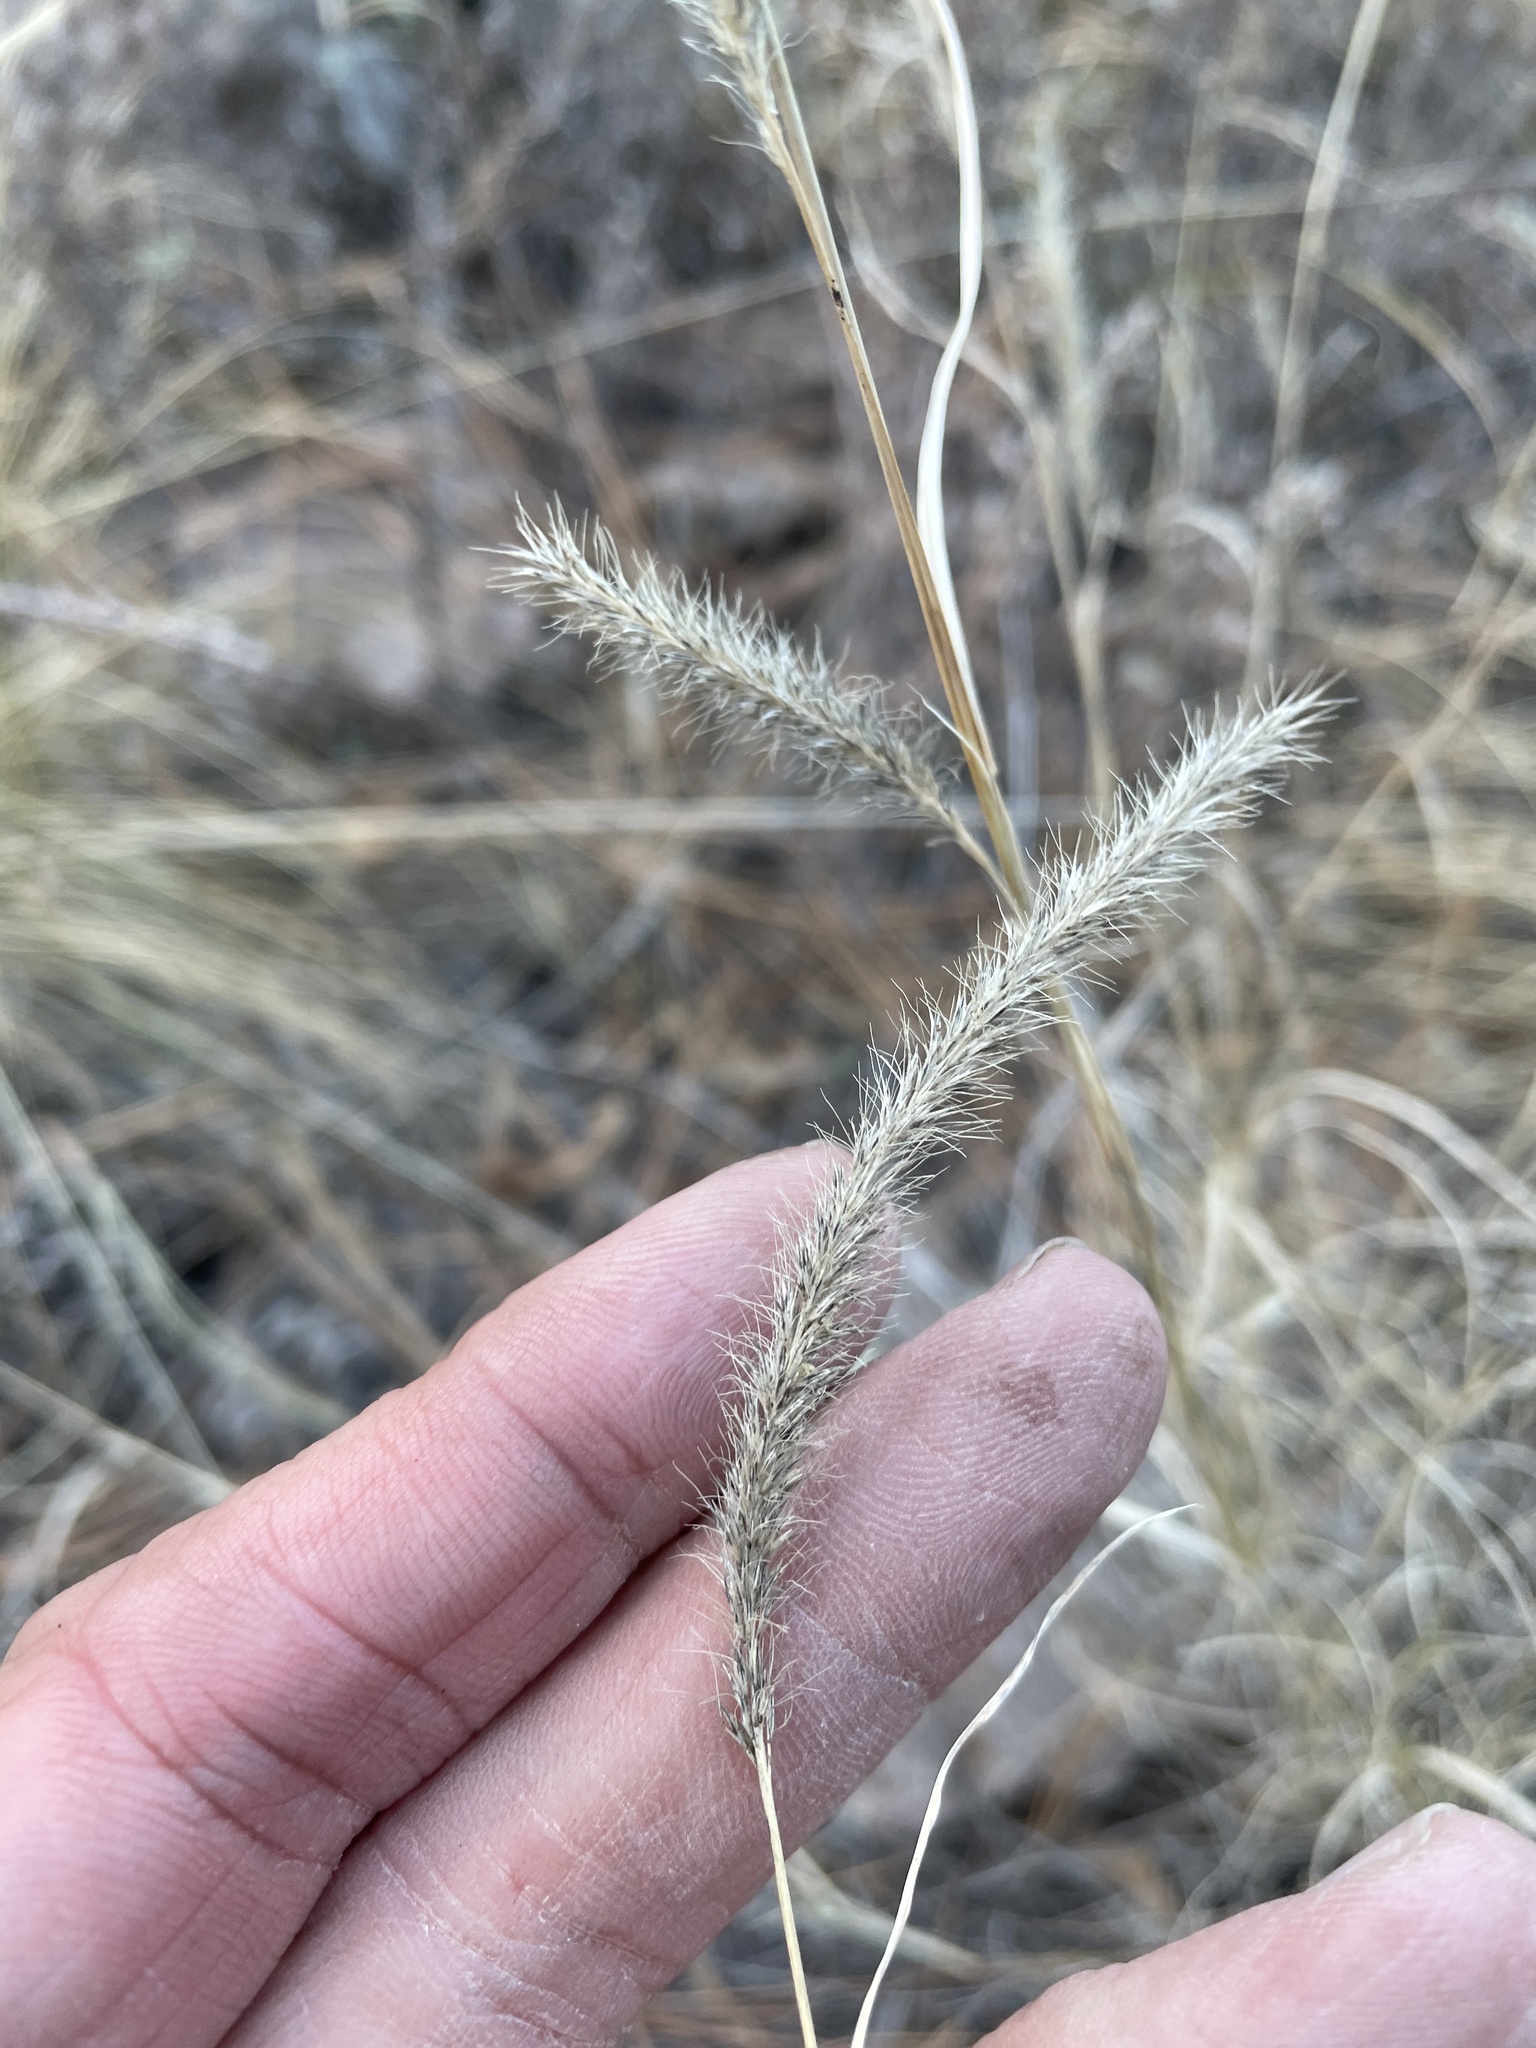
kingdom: Plantae
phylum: Tracheophyta
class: Liliopsida
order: Poales
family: Poaceae
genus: Muhlenbergia
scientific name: Muhlenbergia phleoides
